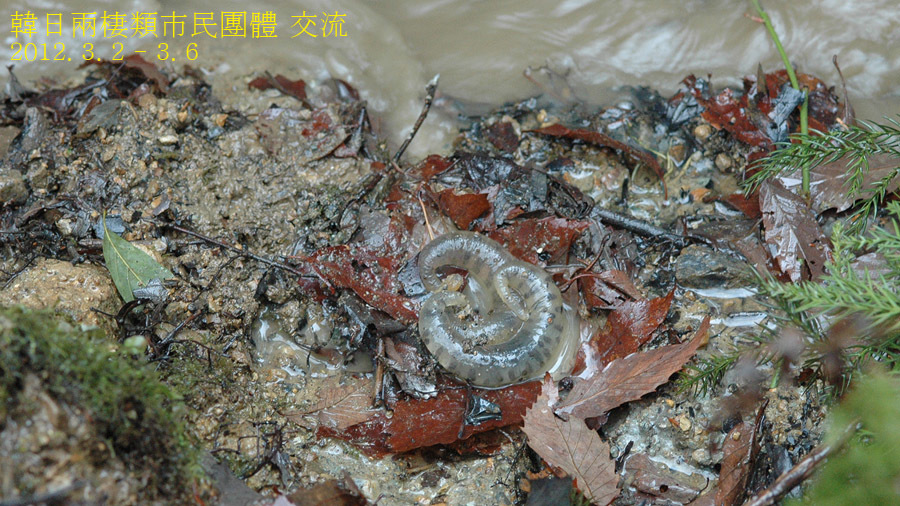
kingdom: Animalia
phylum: Chordata
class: Amphibia
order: Caudata
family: Hynobiidae
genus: Hynobius
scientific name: Hynobius tokyoensis
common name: Tokyo salamander
